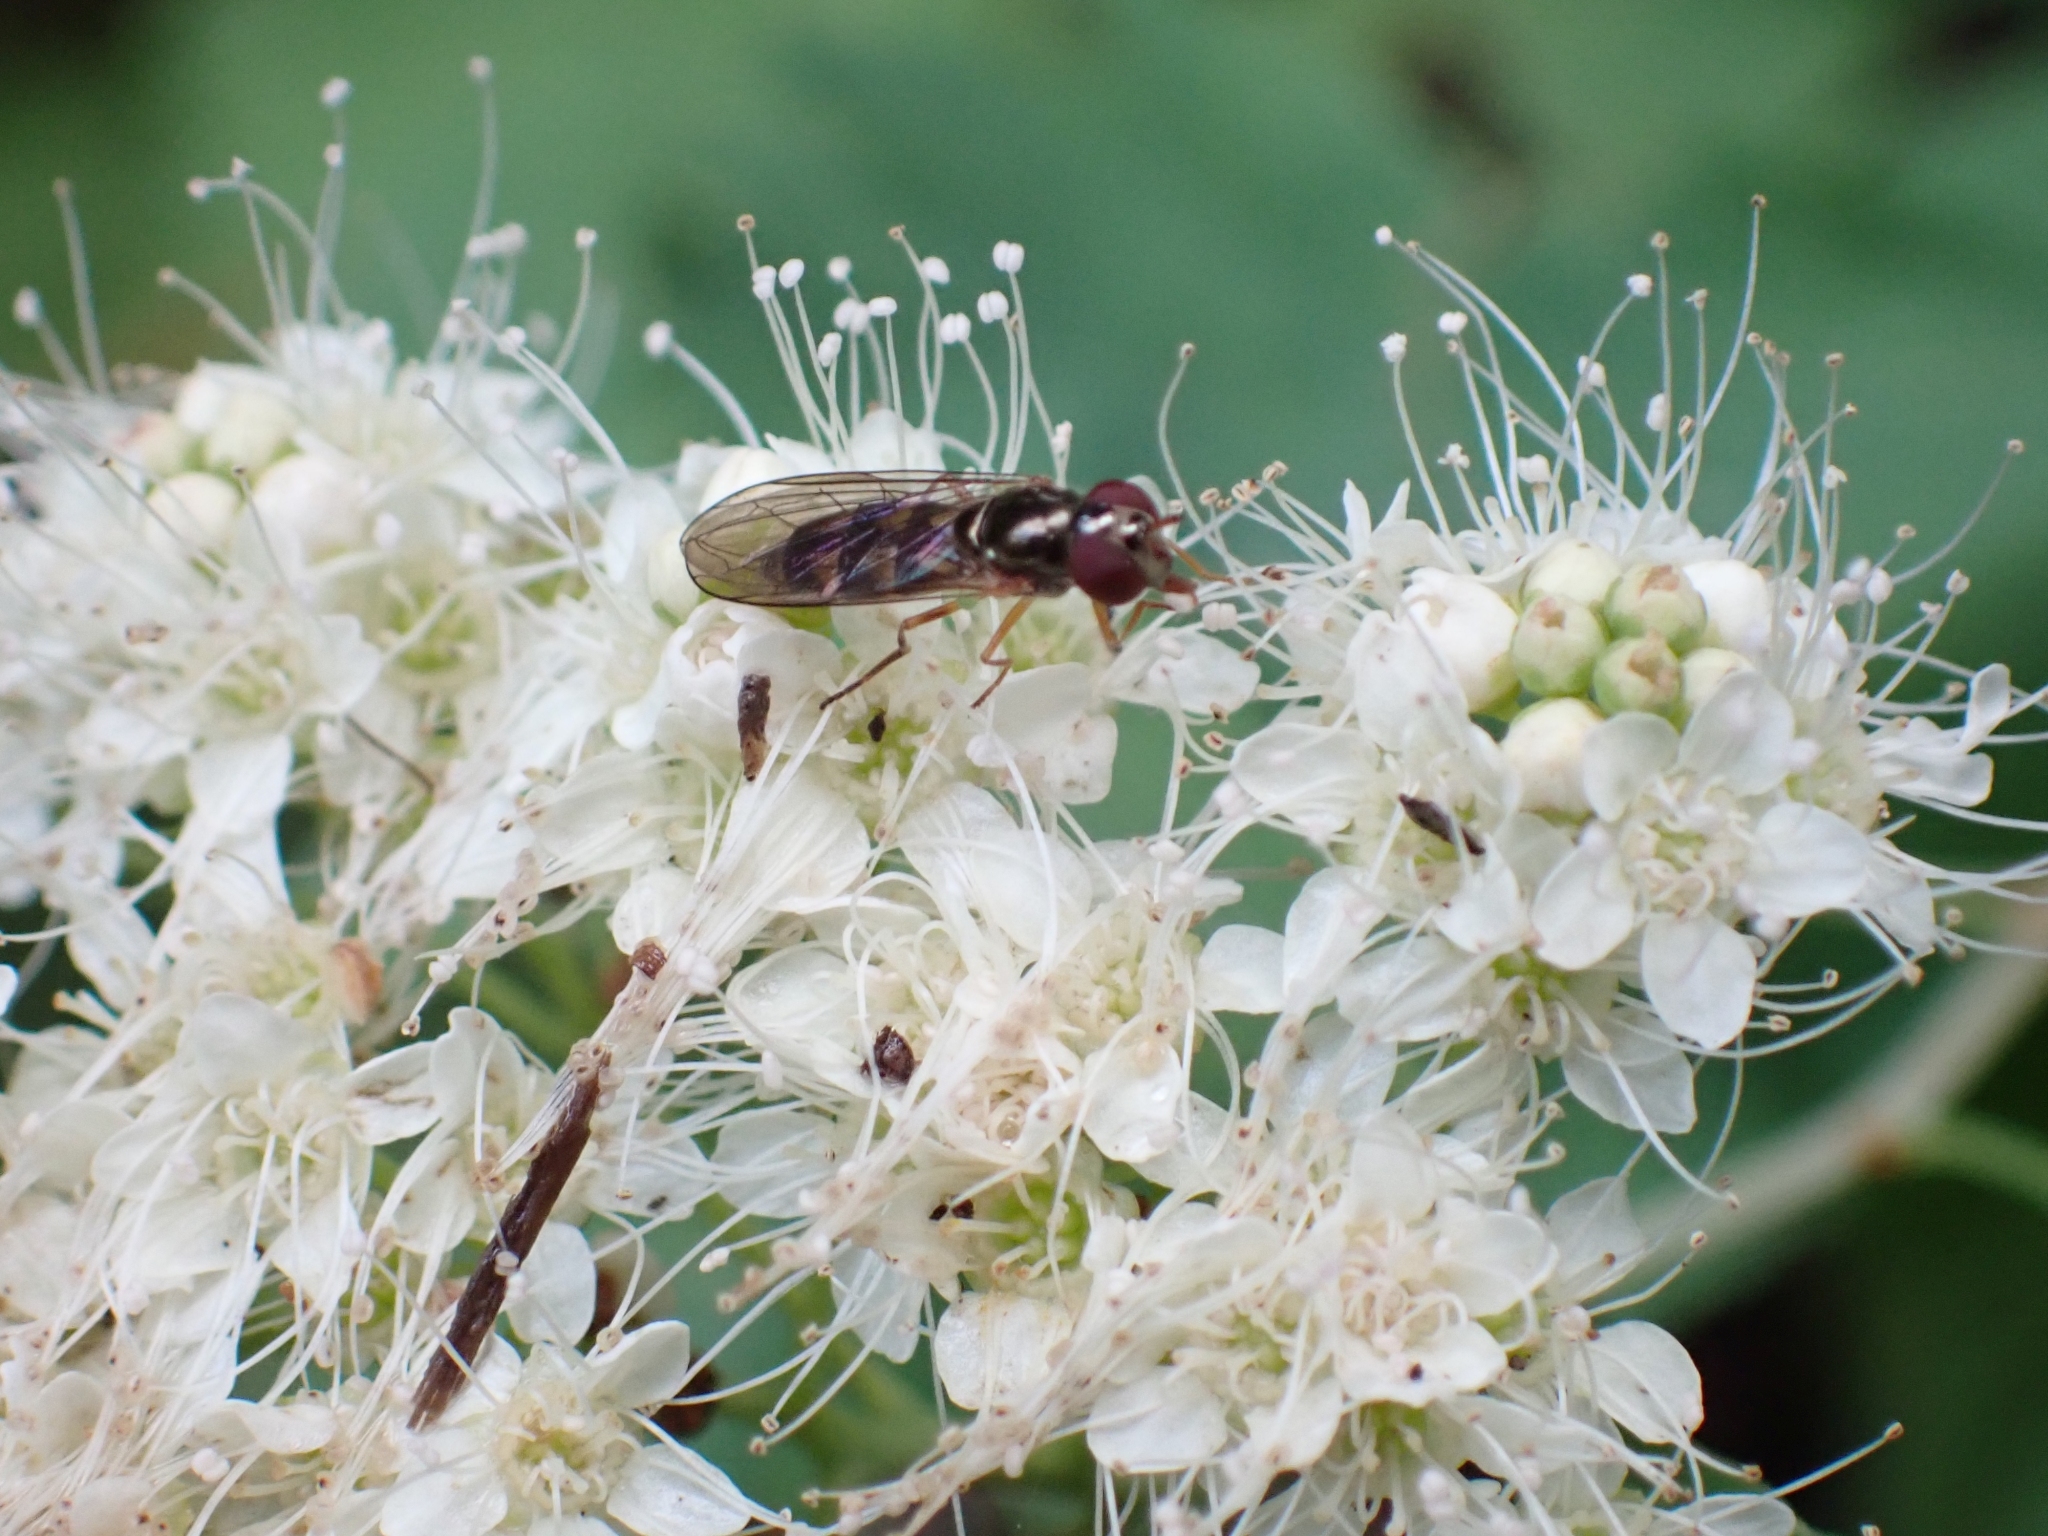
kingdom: Animalia
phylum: Arthropoda
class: Insecta
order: Diptera
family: Syrphidae
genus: Melanostoma
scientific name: Melanostoma mellina
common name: Hover fly
